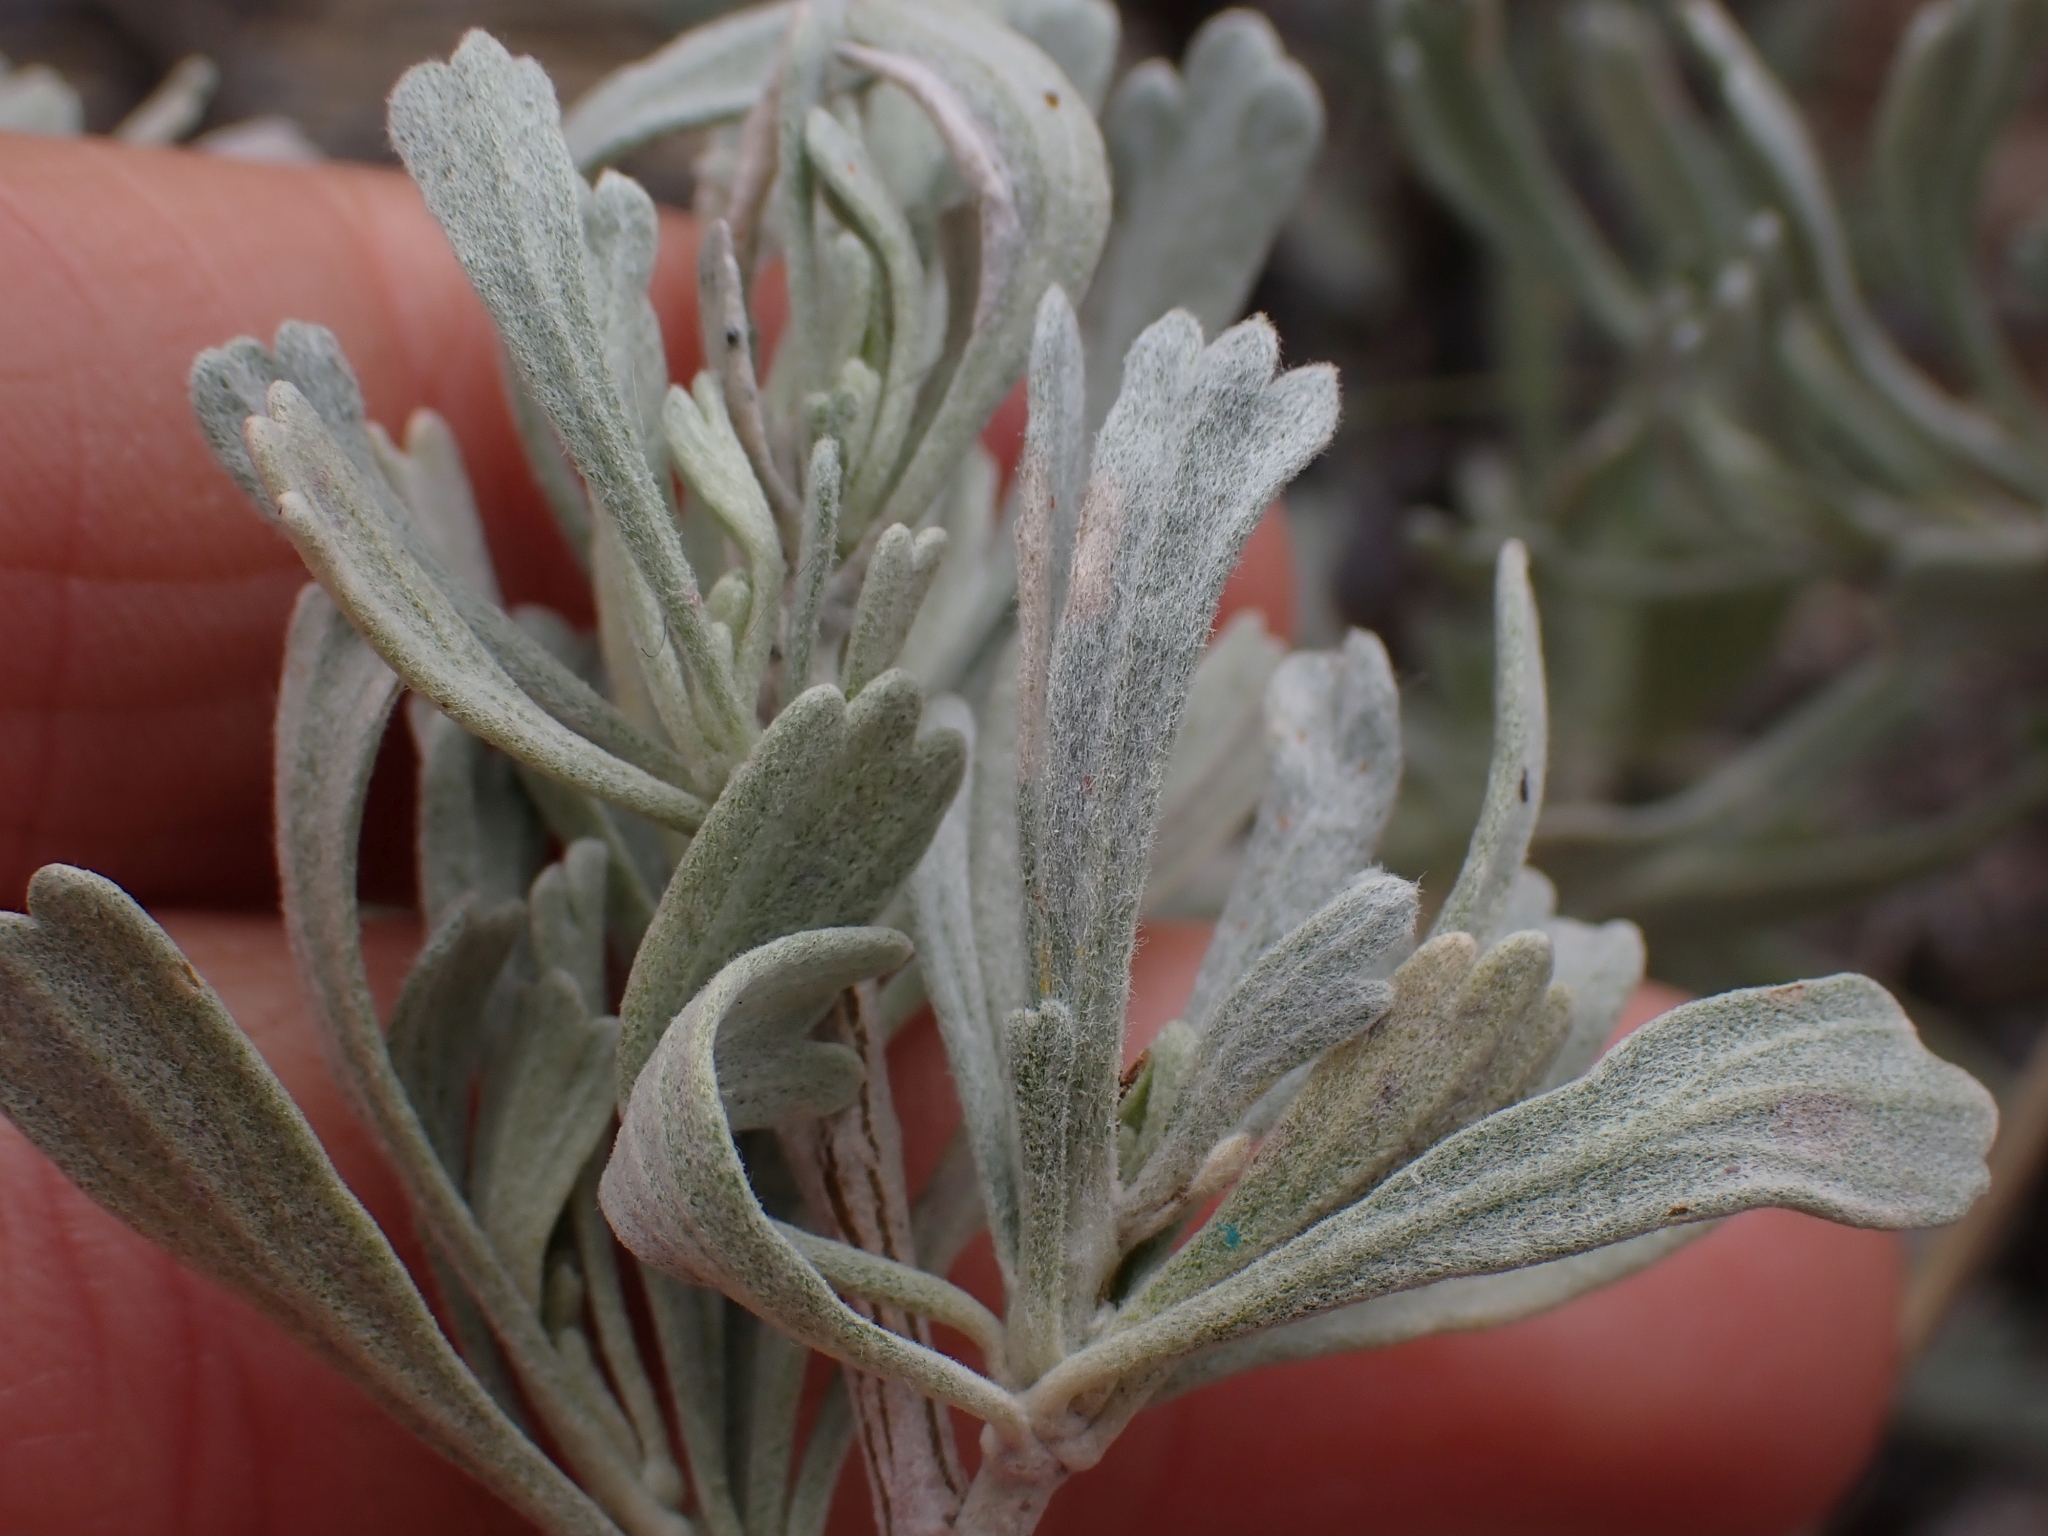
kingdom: Plantae
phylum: Tracheophyta
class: Magnoliopsida
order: Asterales
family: Asteraceae
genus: Artemisia
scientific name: Artemisia tridentata
